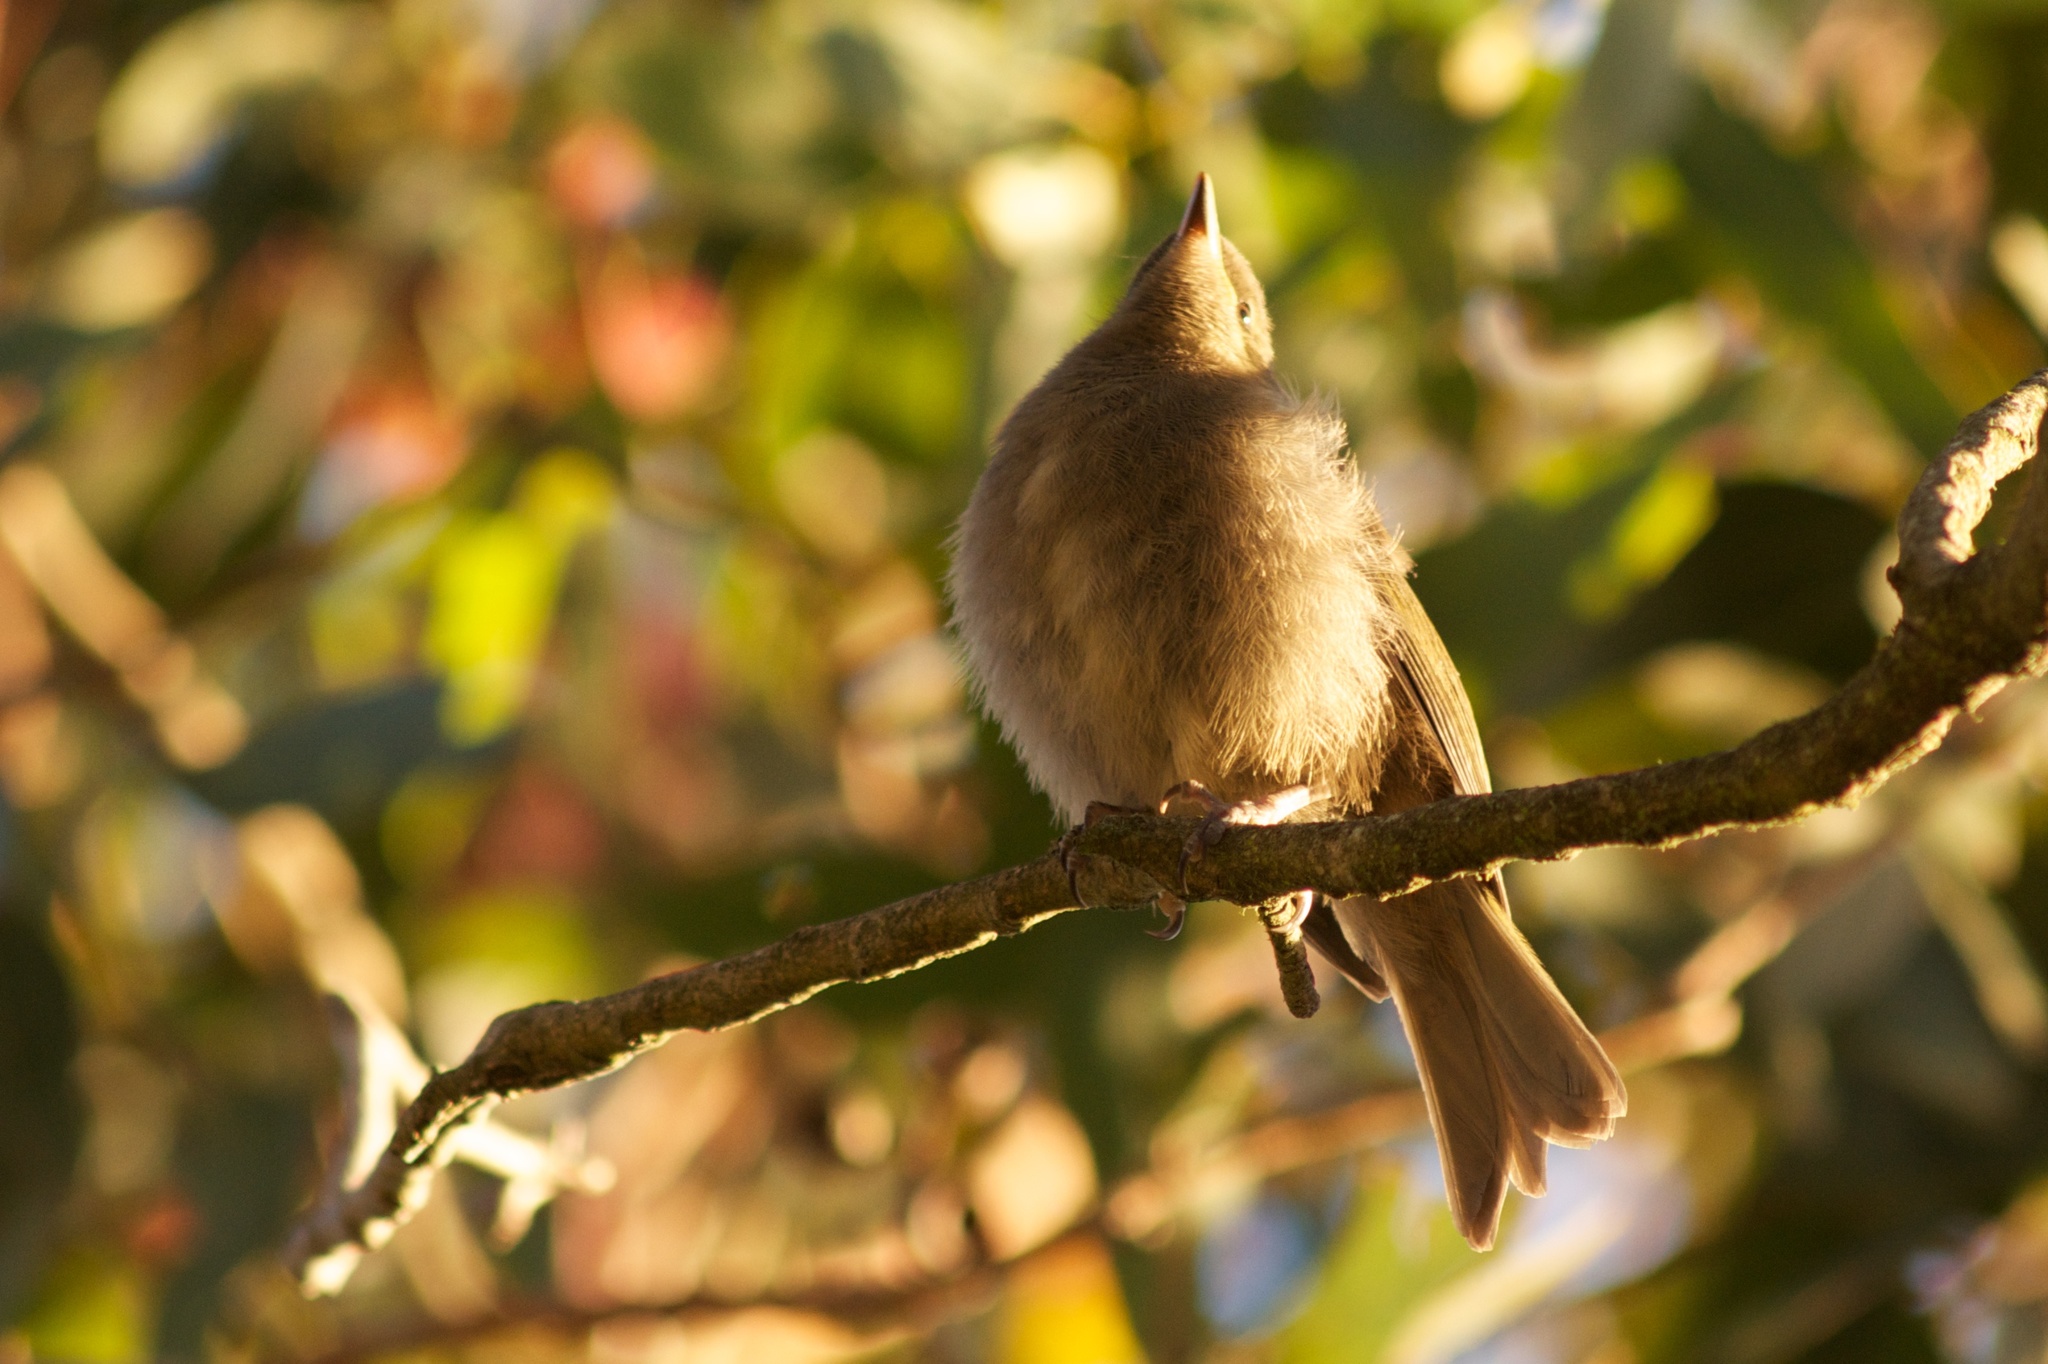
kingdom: Animalia
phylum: Chordata
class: Aves
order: Passeriformes
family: Meliphagidae
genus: Anthornis
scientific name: Anthornis melanura
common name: New zealand bellbird
